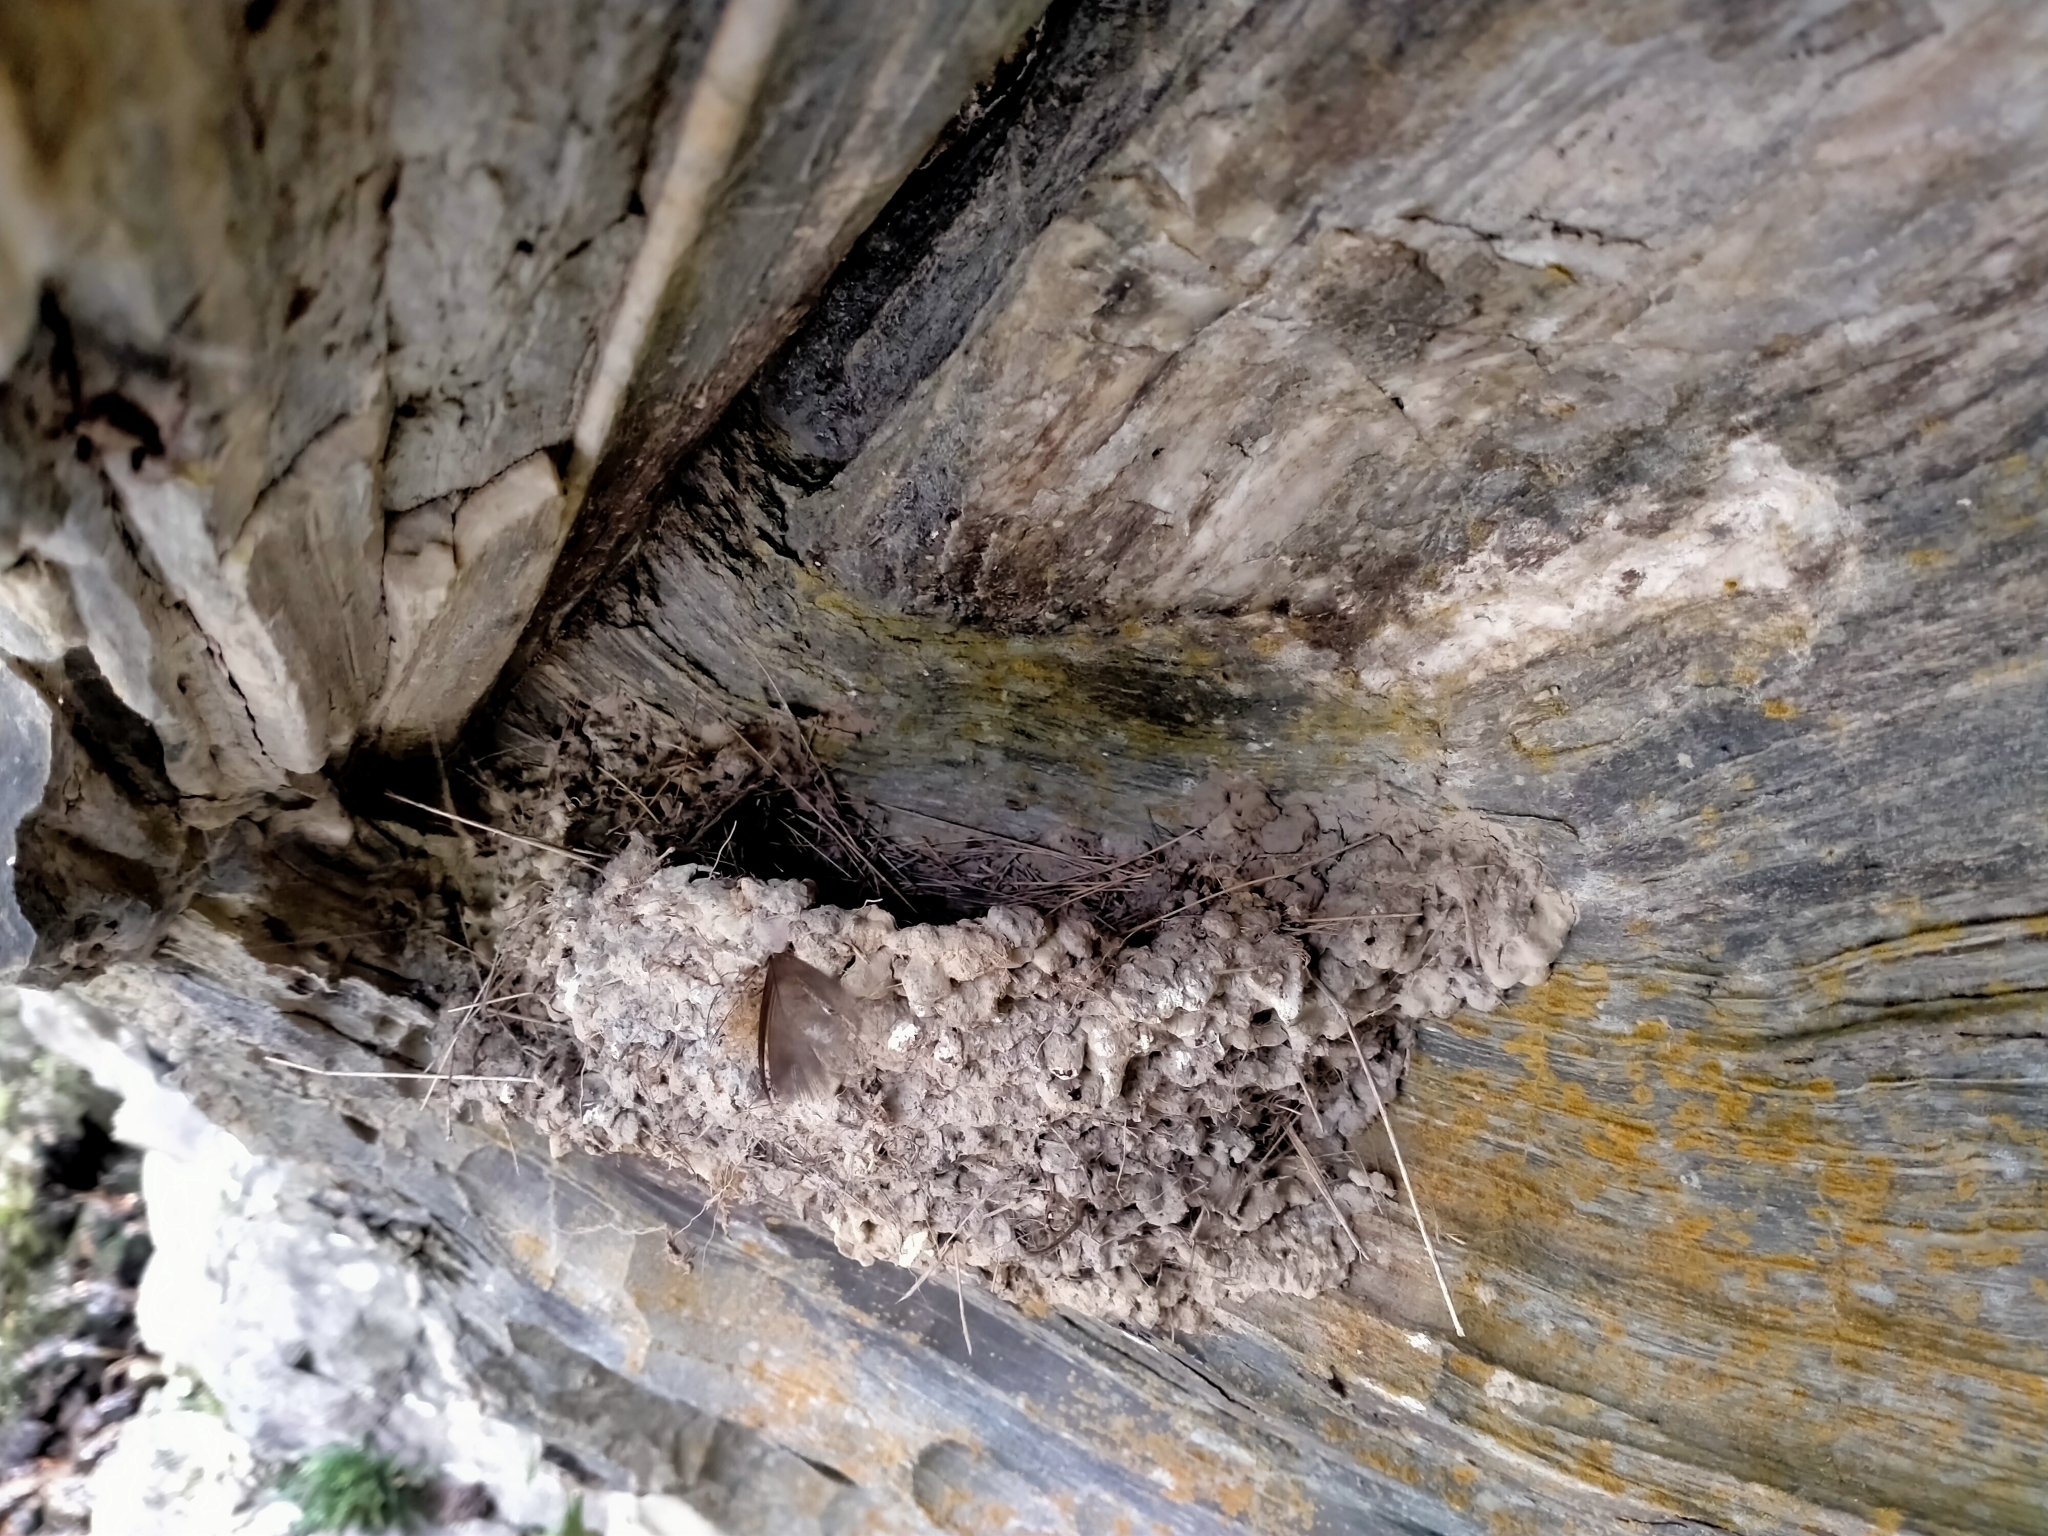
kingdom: Animalia
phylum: Chordata
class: Aves
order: Passeriformes
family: Hirundinidae
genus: Hirundo
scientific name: Hirundo neoxena
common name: Welcome swallow
